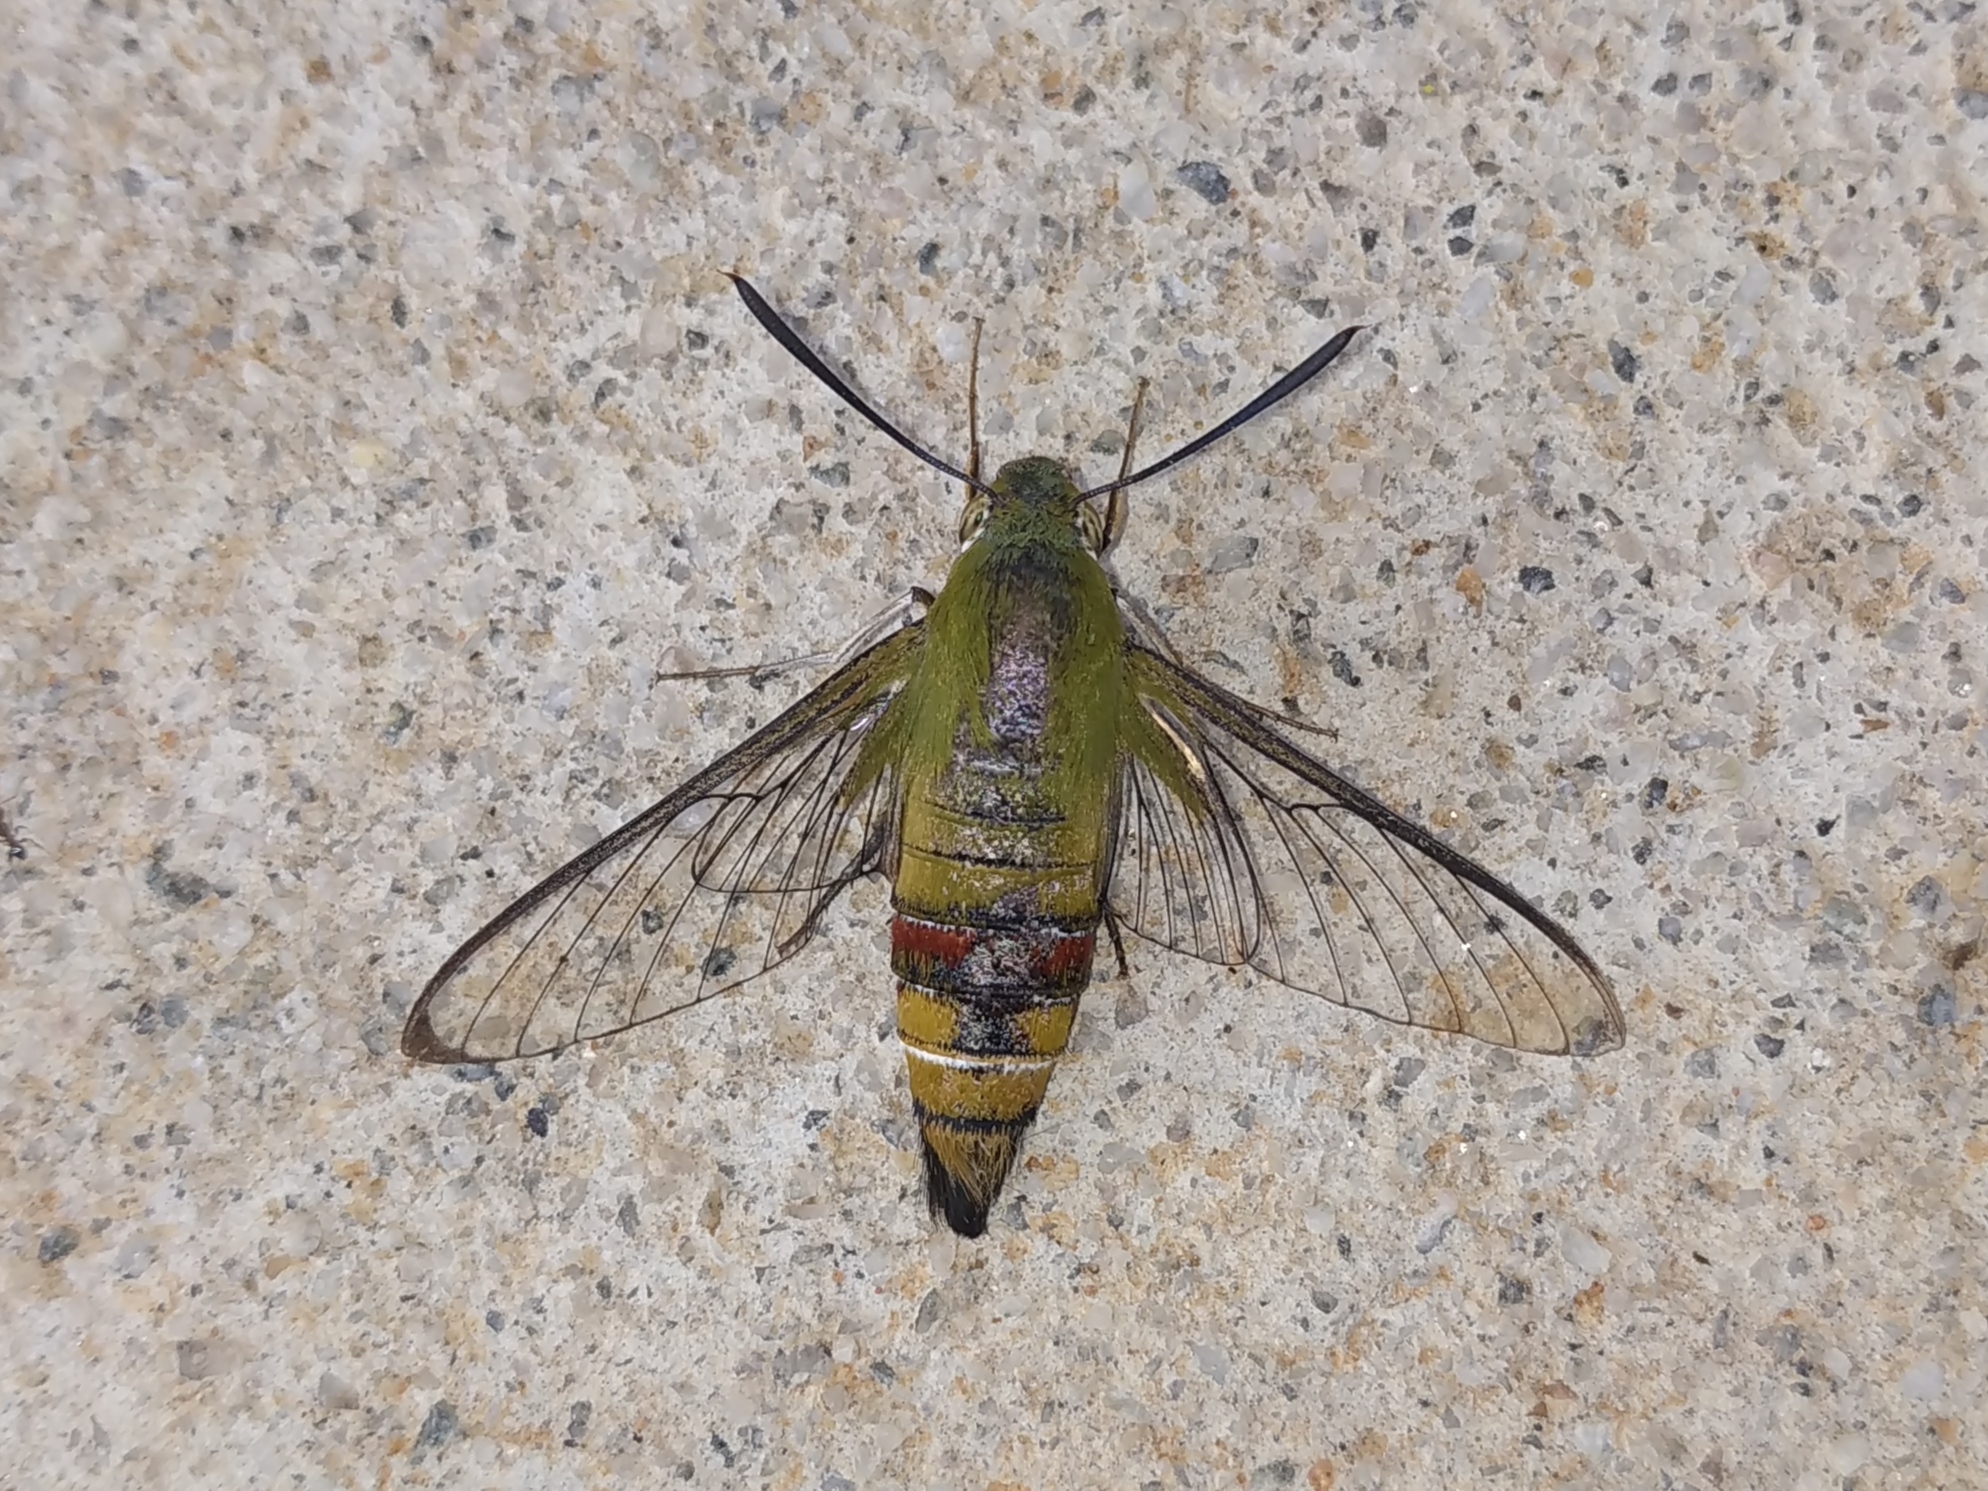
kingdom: Animalia
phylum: Arthropoda
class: Insecta
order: Lepidoptera
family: Sphingidae
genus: Cephonodes
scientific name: Cephonodes hylas
